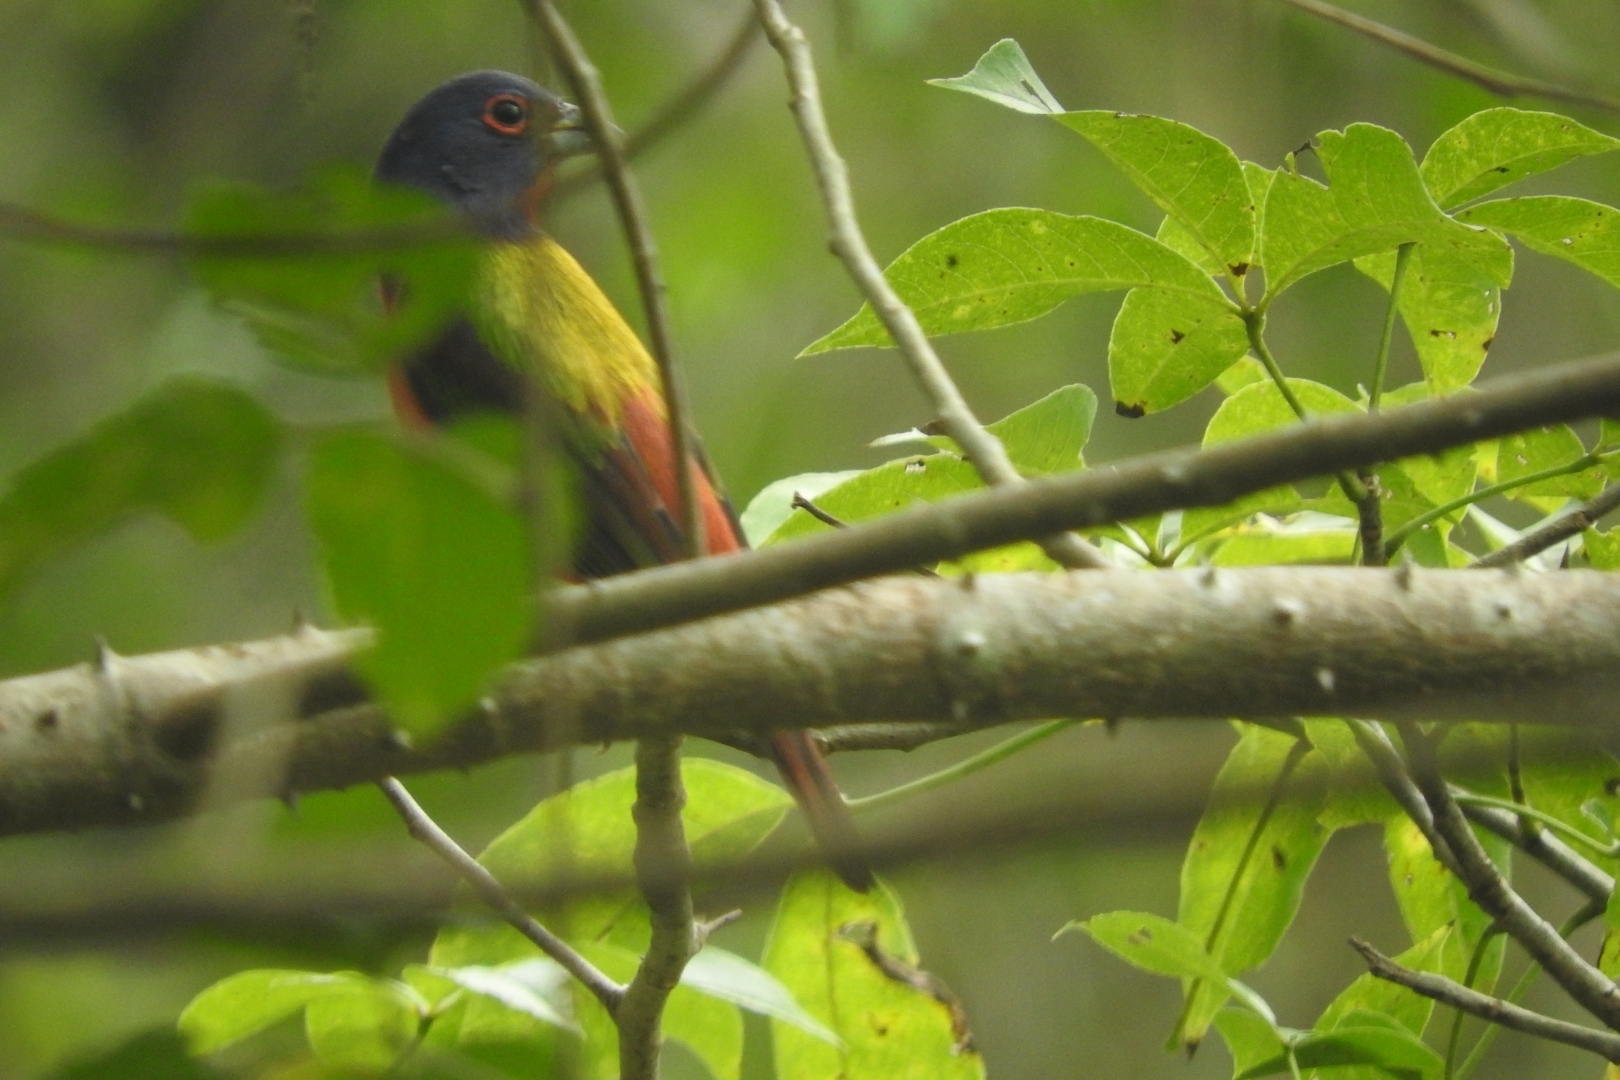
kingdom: Animalia
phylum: Chordata
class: Aves
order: Passeriformes
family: Cardinalidae
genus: Passerina
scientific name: Passerina ciris
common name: Painted bunting
